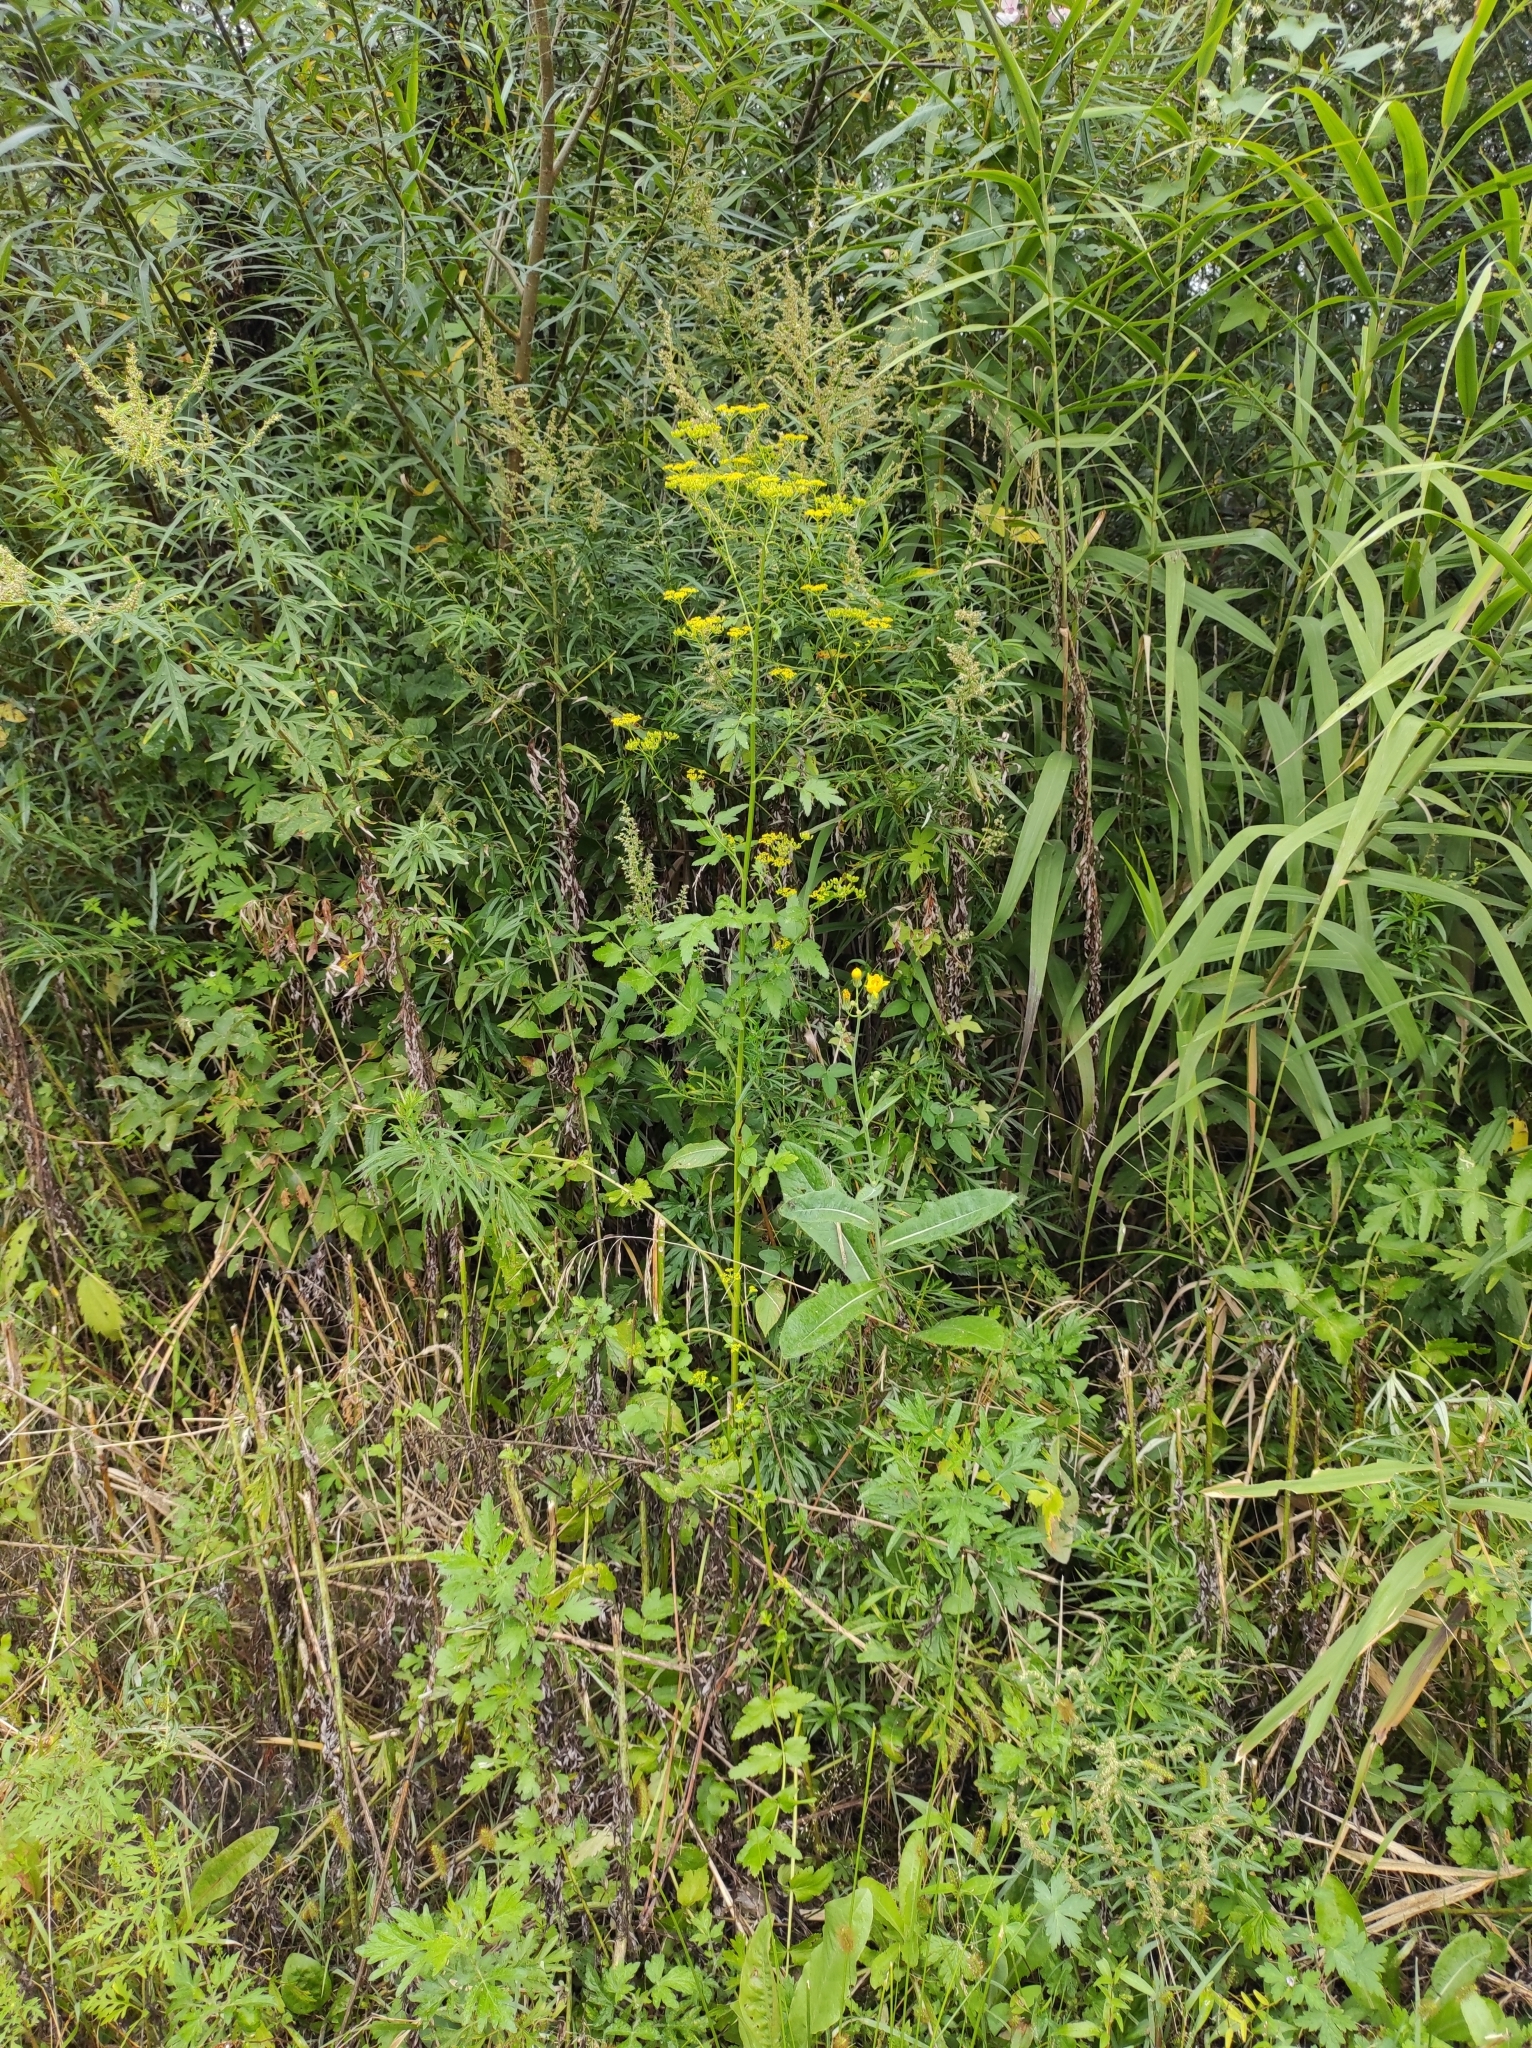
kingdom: Plantae
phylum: Tracheophyta
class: Magnoliopsida
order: Apiales
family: Apiaceae
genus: Pastinaca
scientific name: Pastinaca sativa
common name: Wild parsnip
